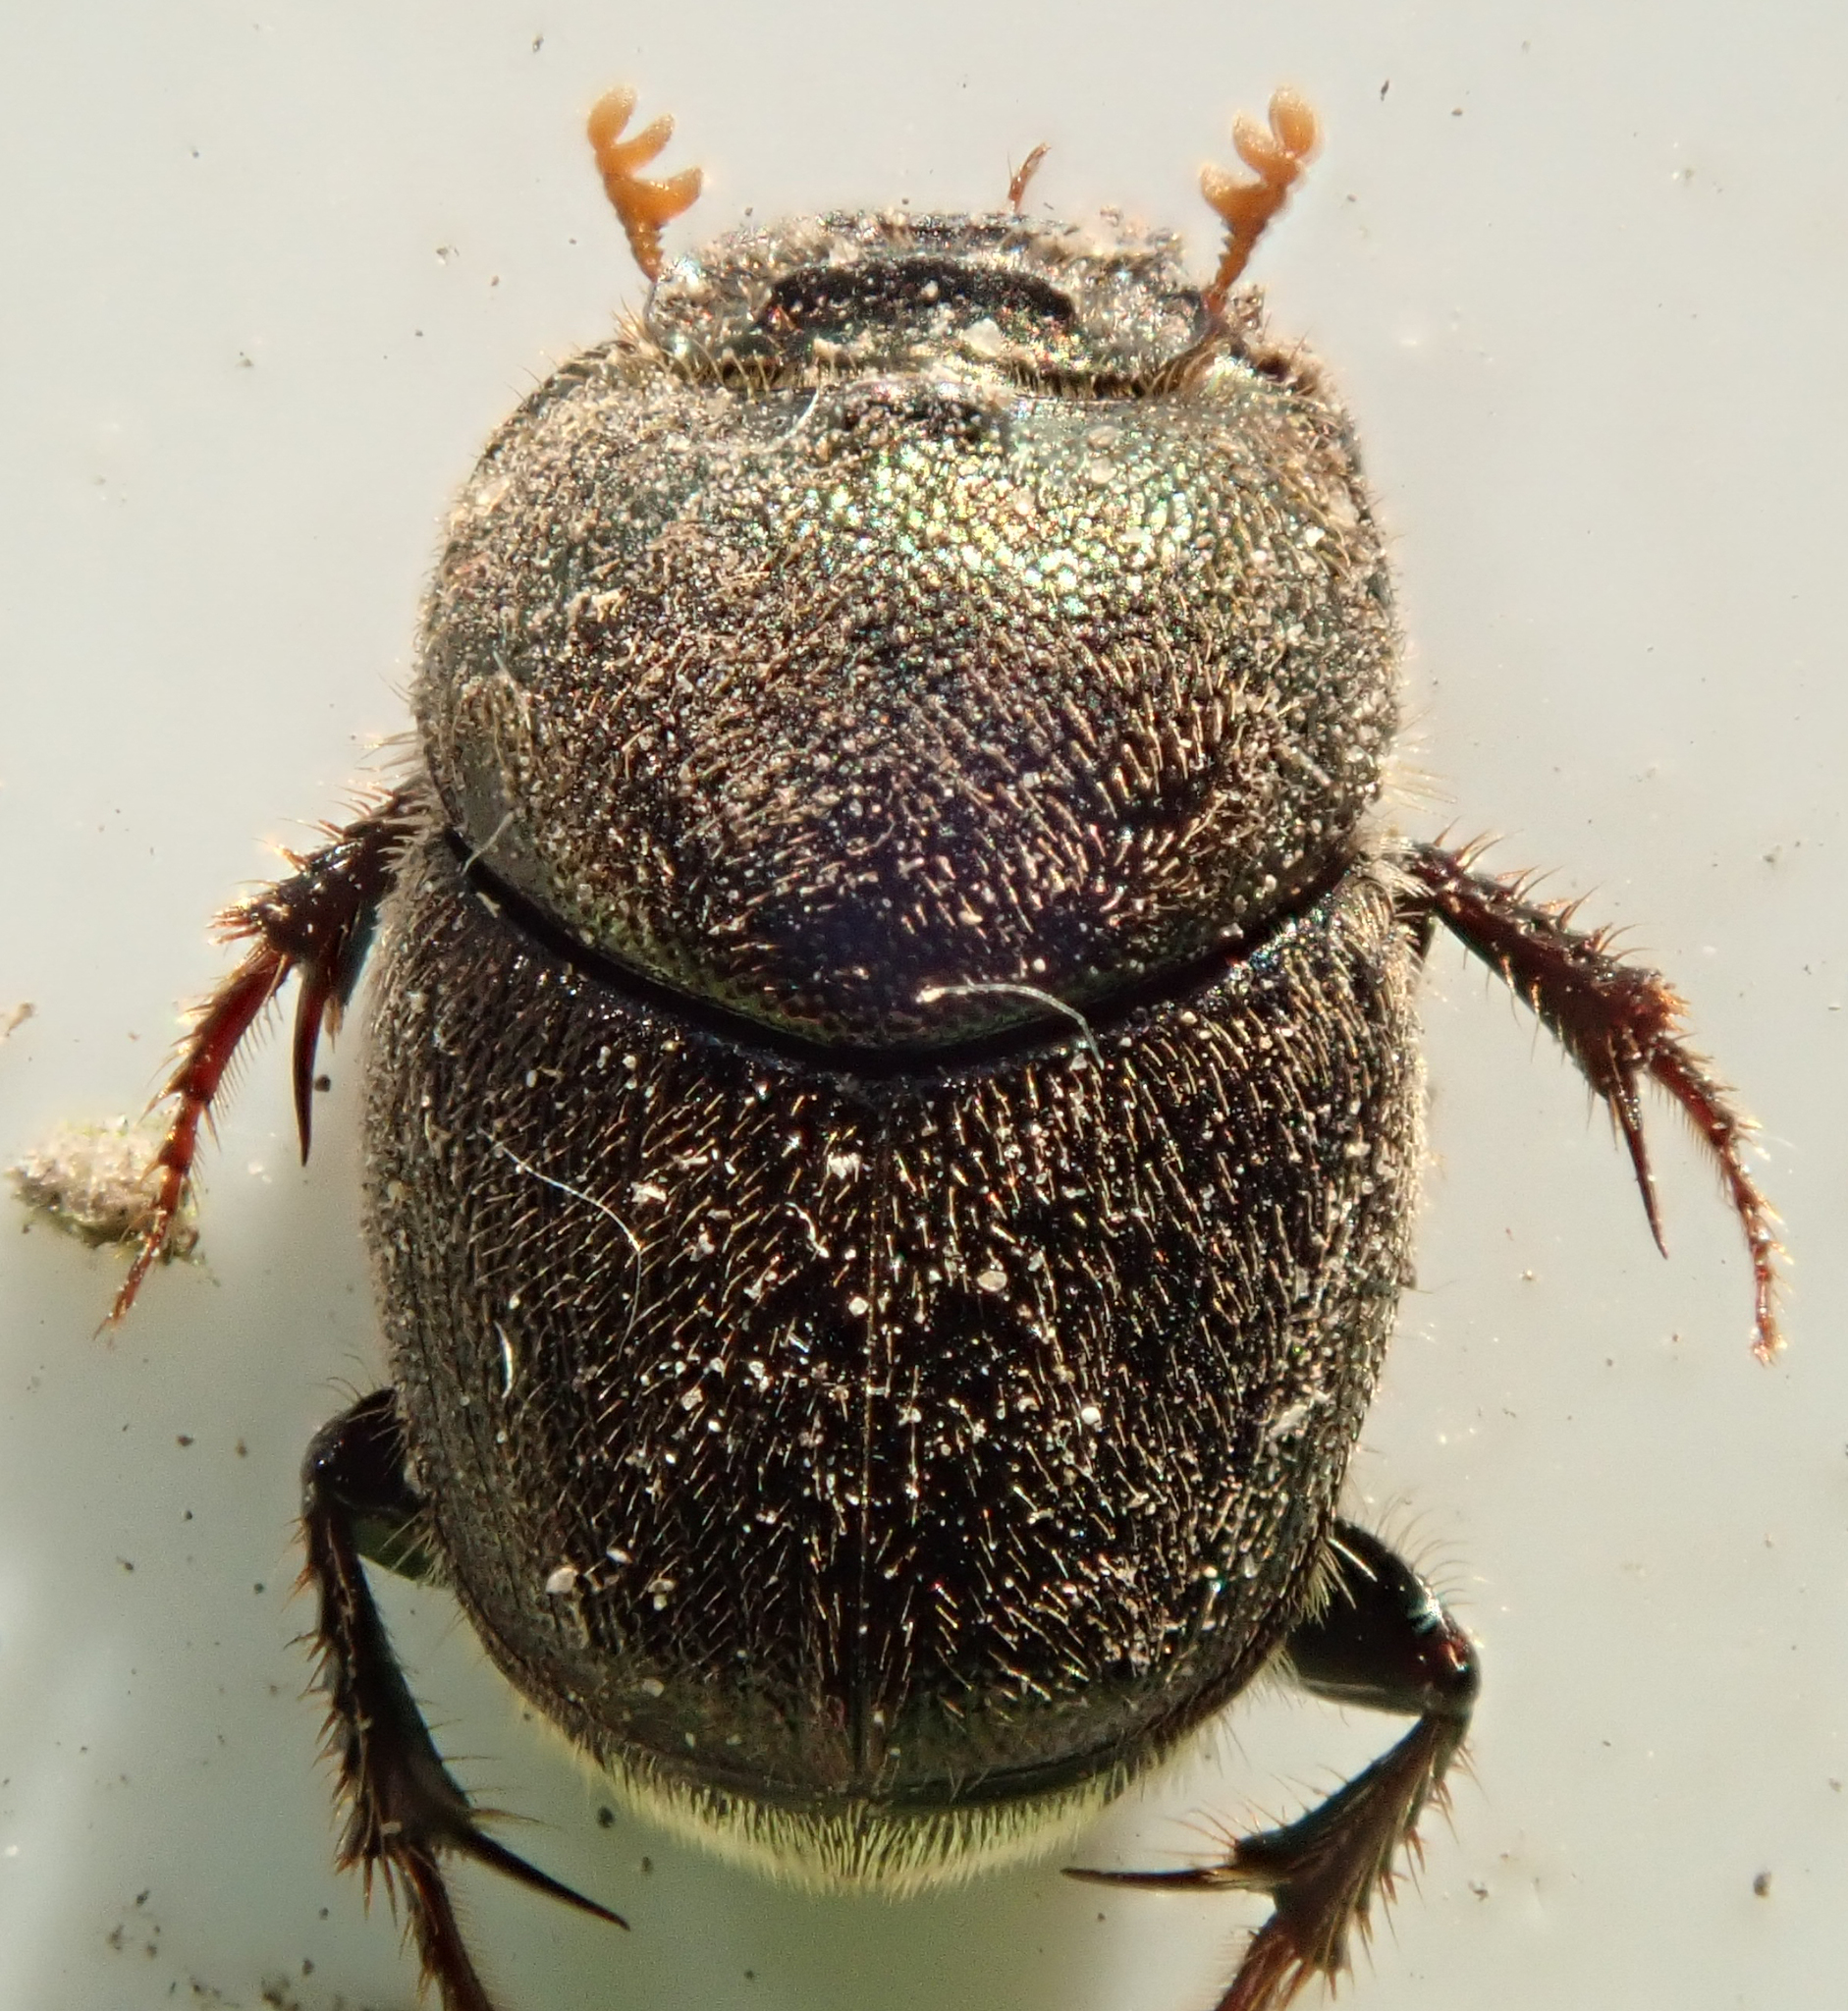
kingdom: Animalia
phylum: Arthropoda
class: Insecta
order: Coleoptera
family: Scarabaeidae
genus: Onthophagus
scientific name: Onthophagus aeruginosus
